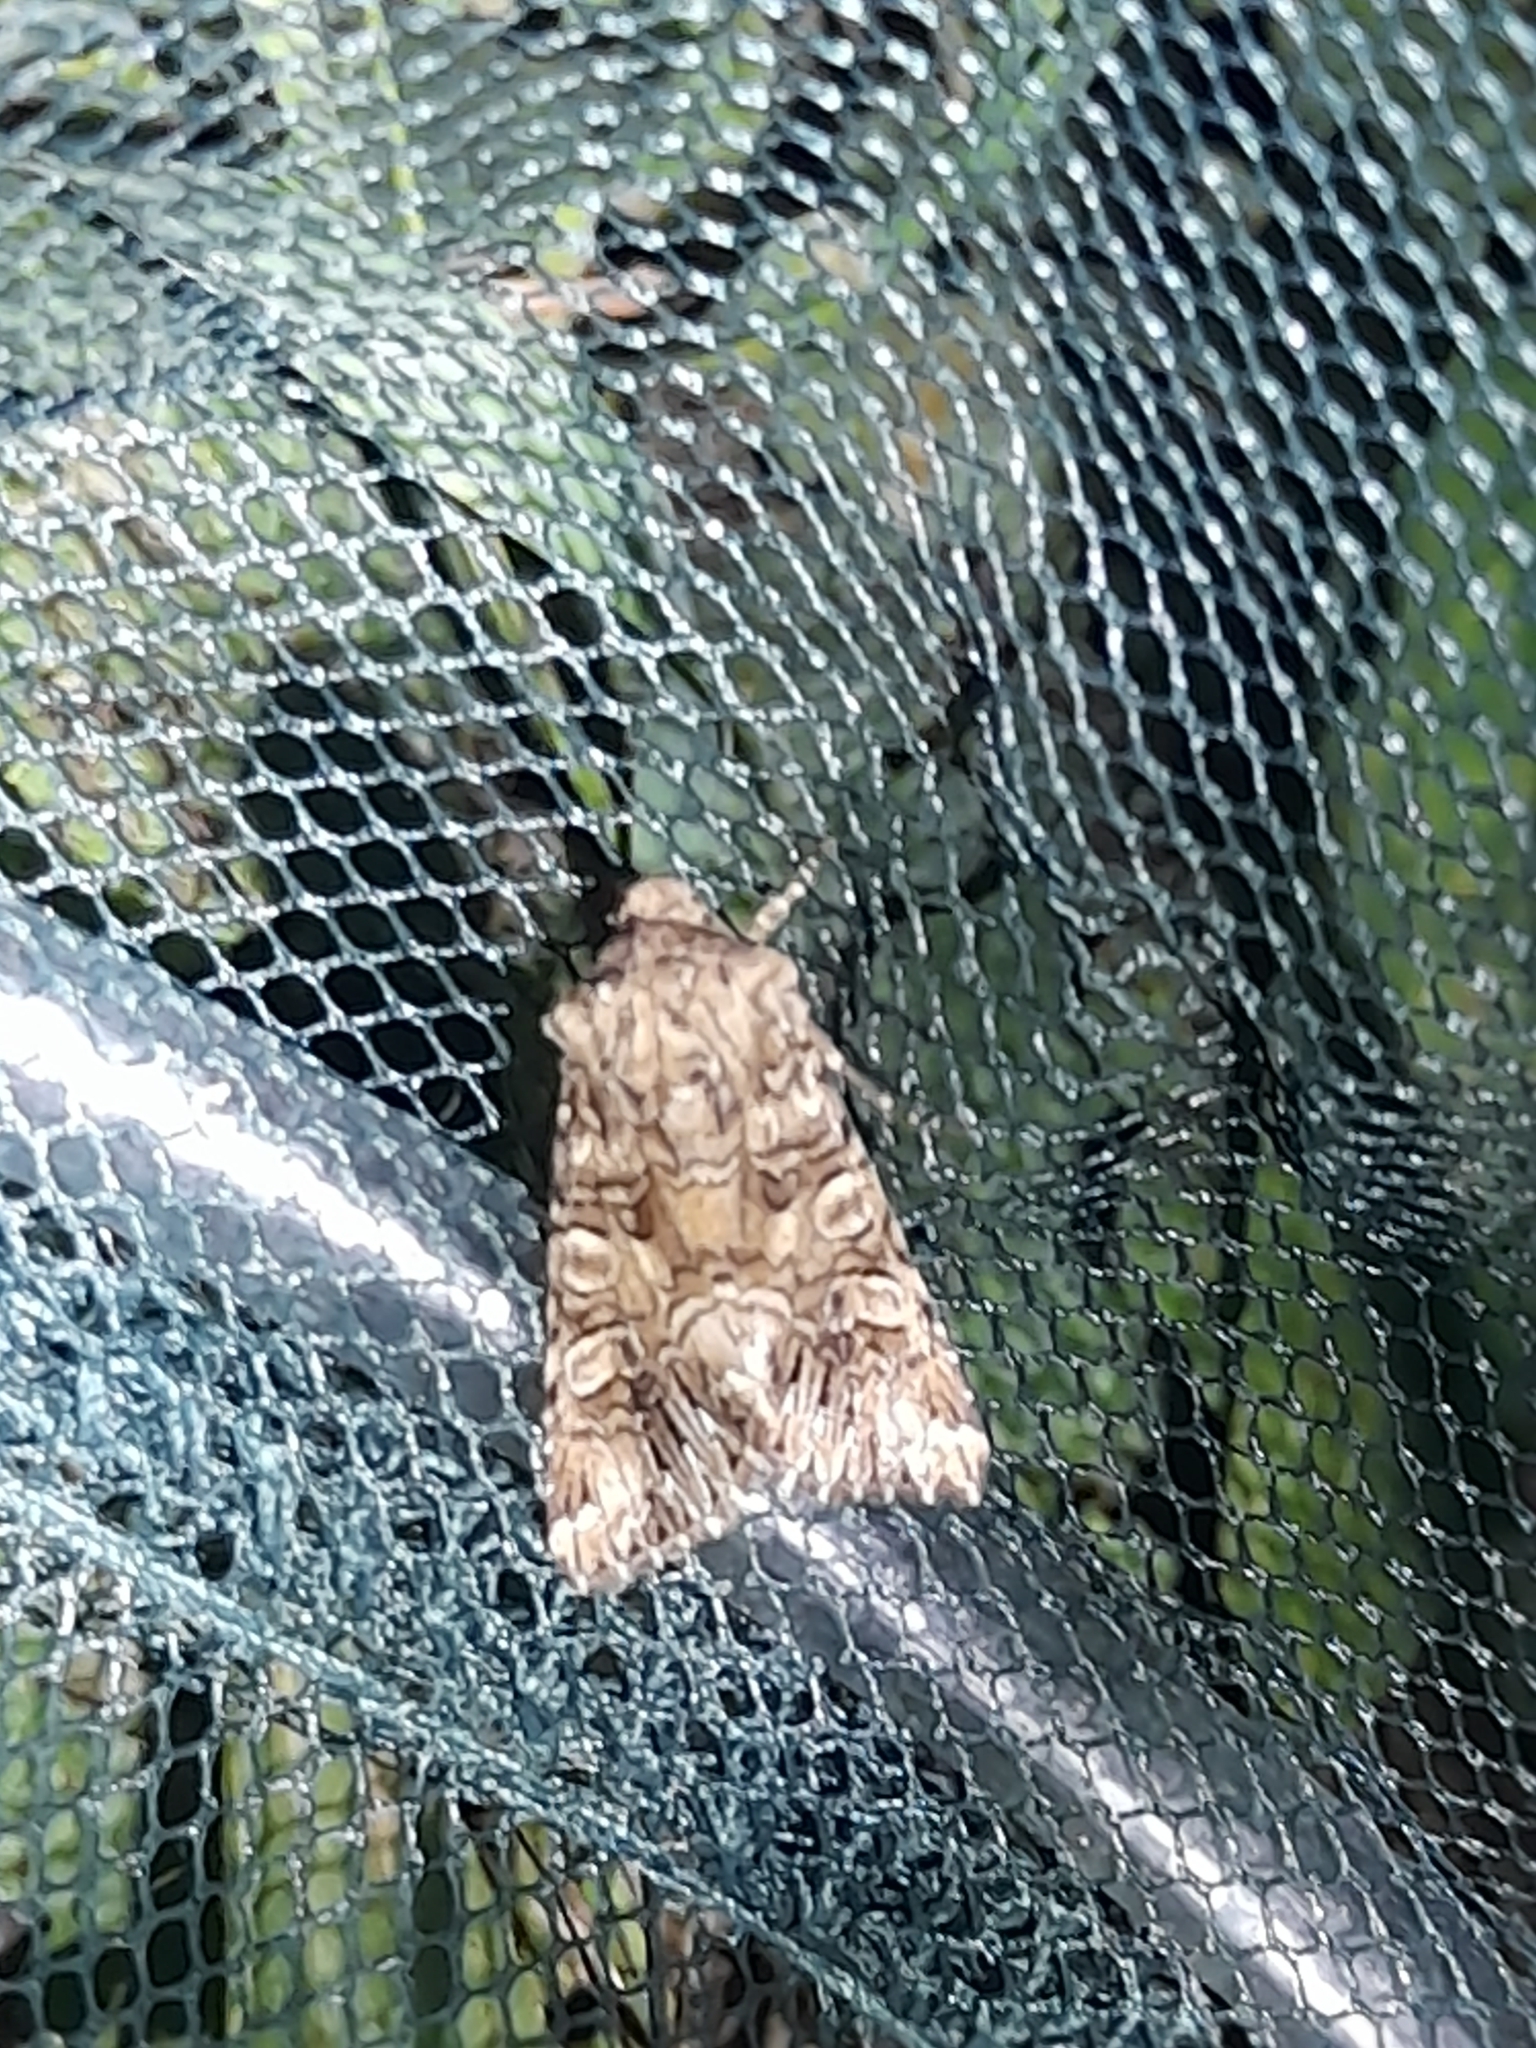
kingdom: Animalia
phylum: Arthropoda
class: Insecta
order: Lepidoptera
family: Noctuidae
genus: Hadena
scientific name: Hadena silenes
